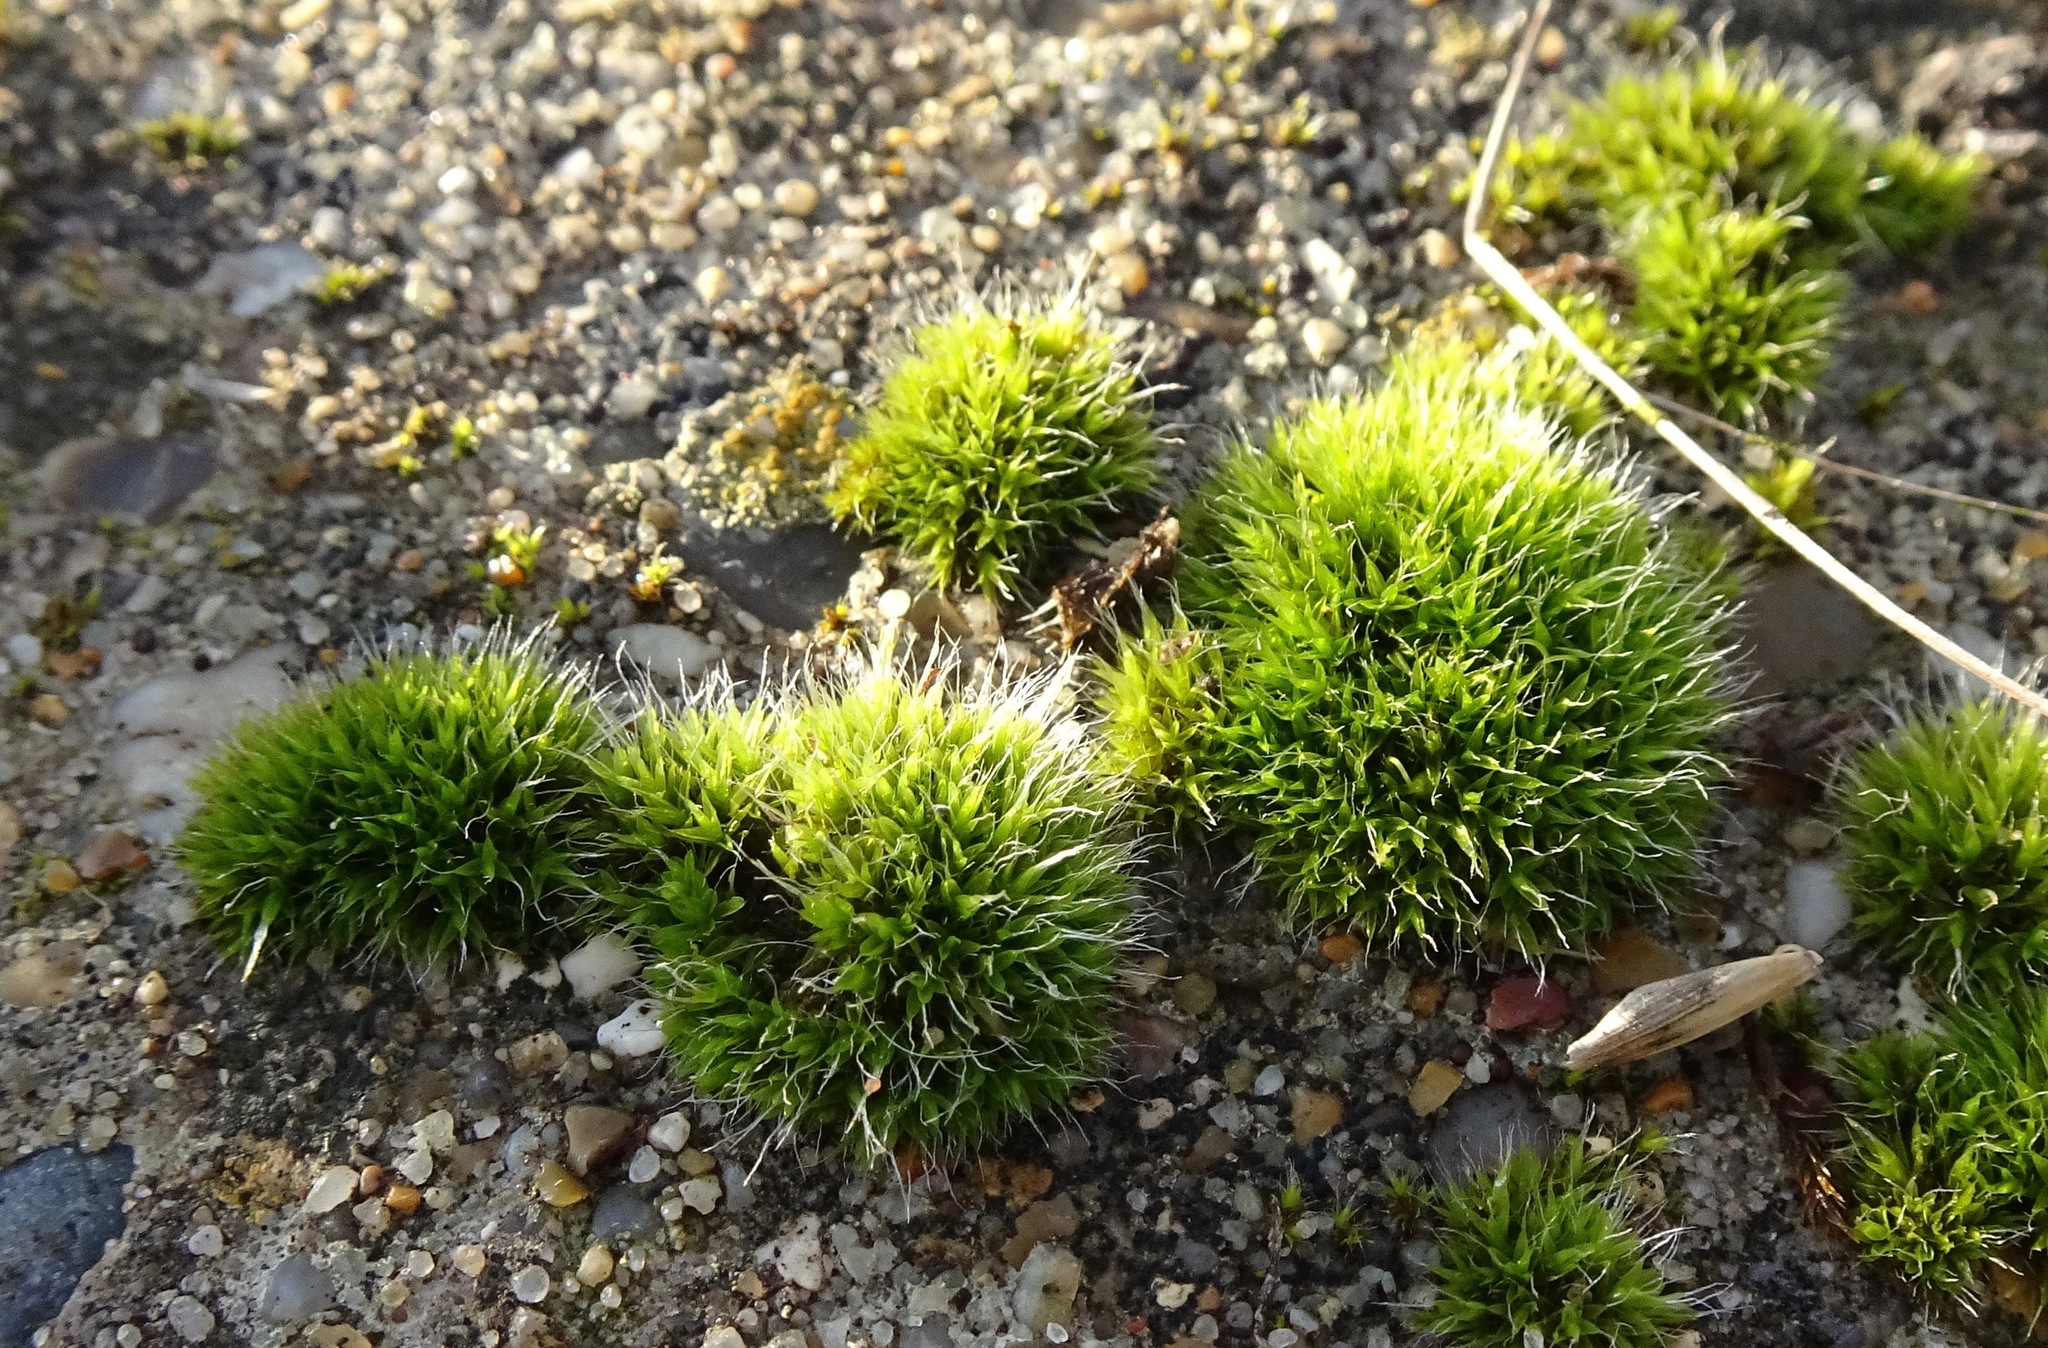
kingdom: Plantae
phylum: Bryophyta
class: Bryopsida
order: Grimmiales
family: Grimmiaceae
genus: Grimmia
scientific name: Grimmia pulvinata
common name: Grey-cushioned grimmia
